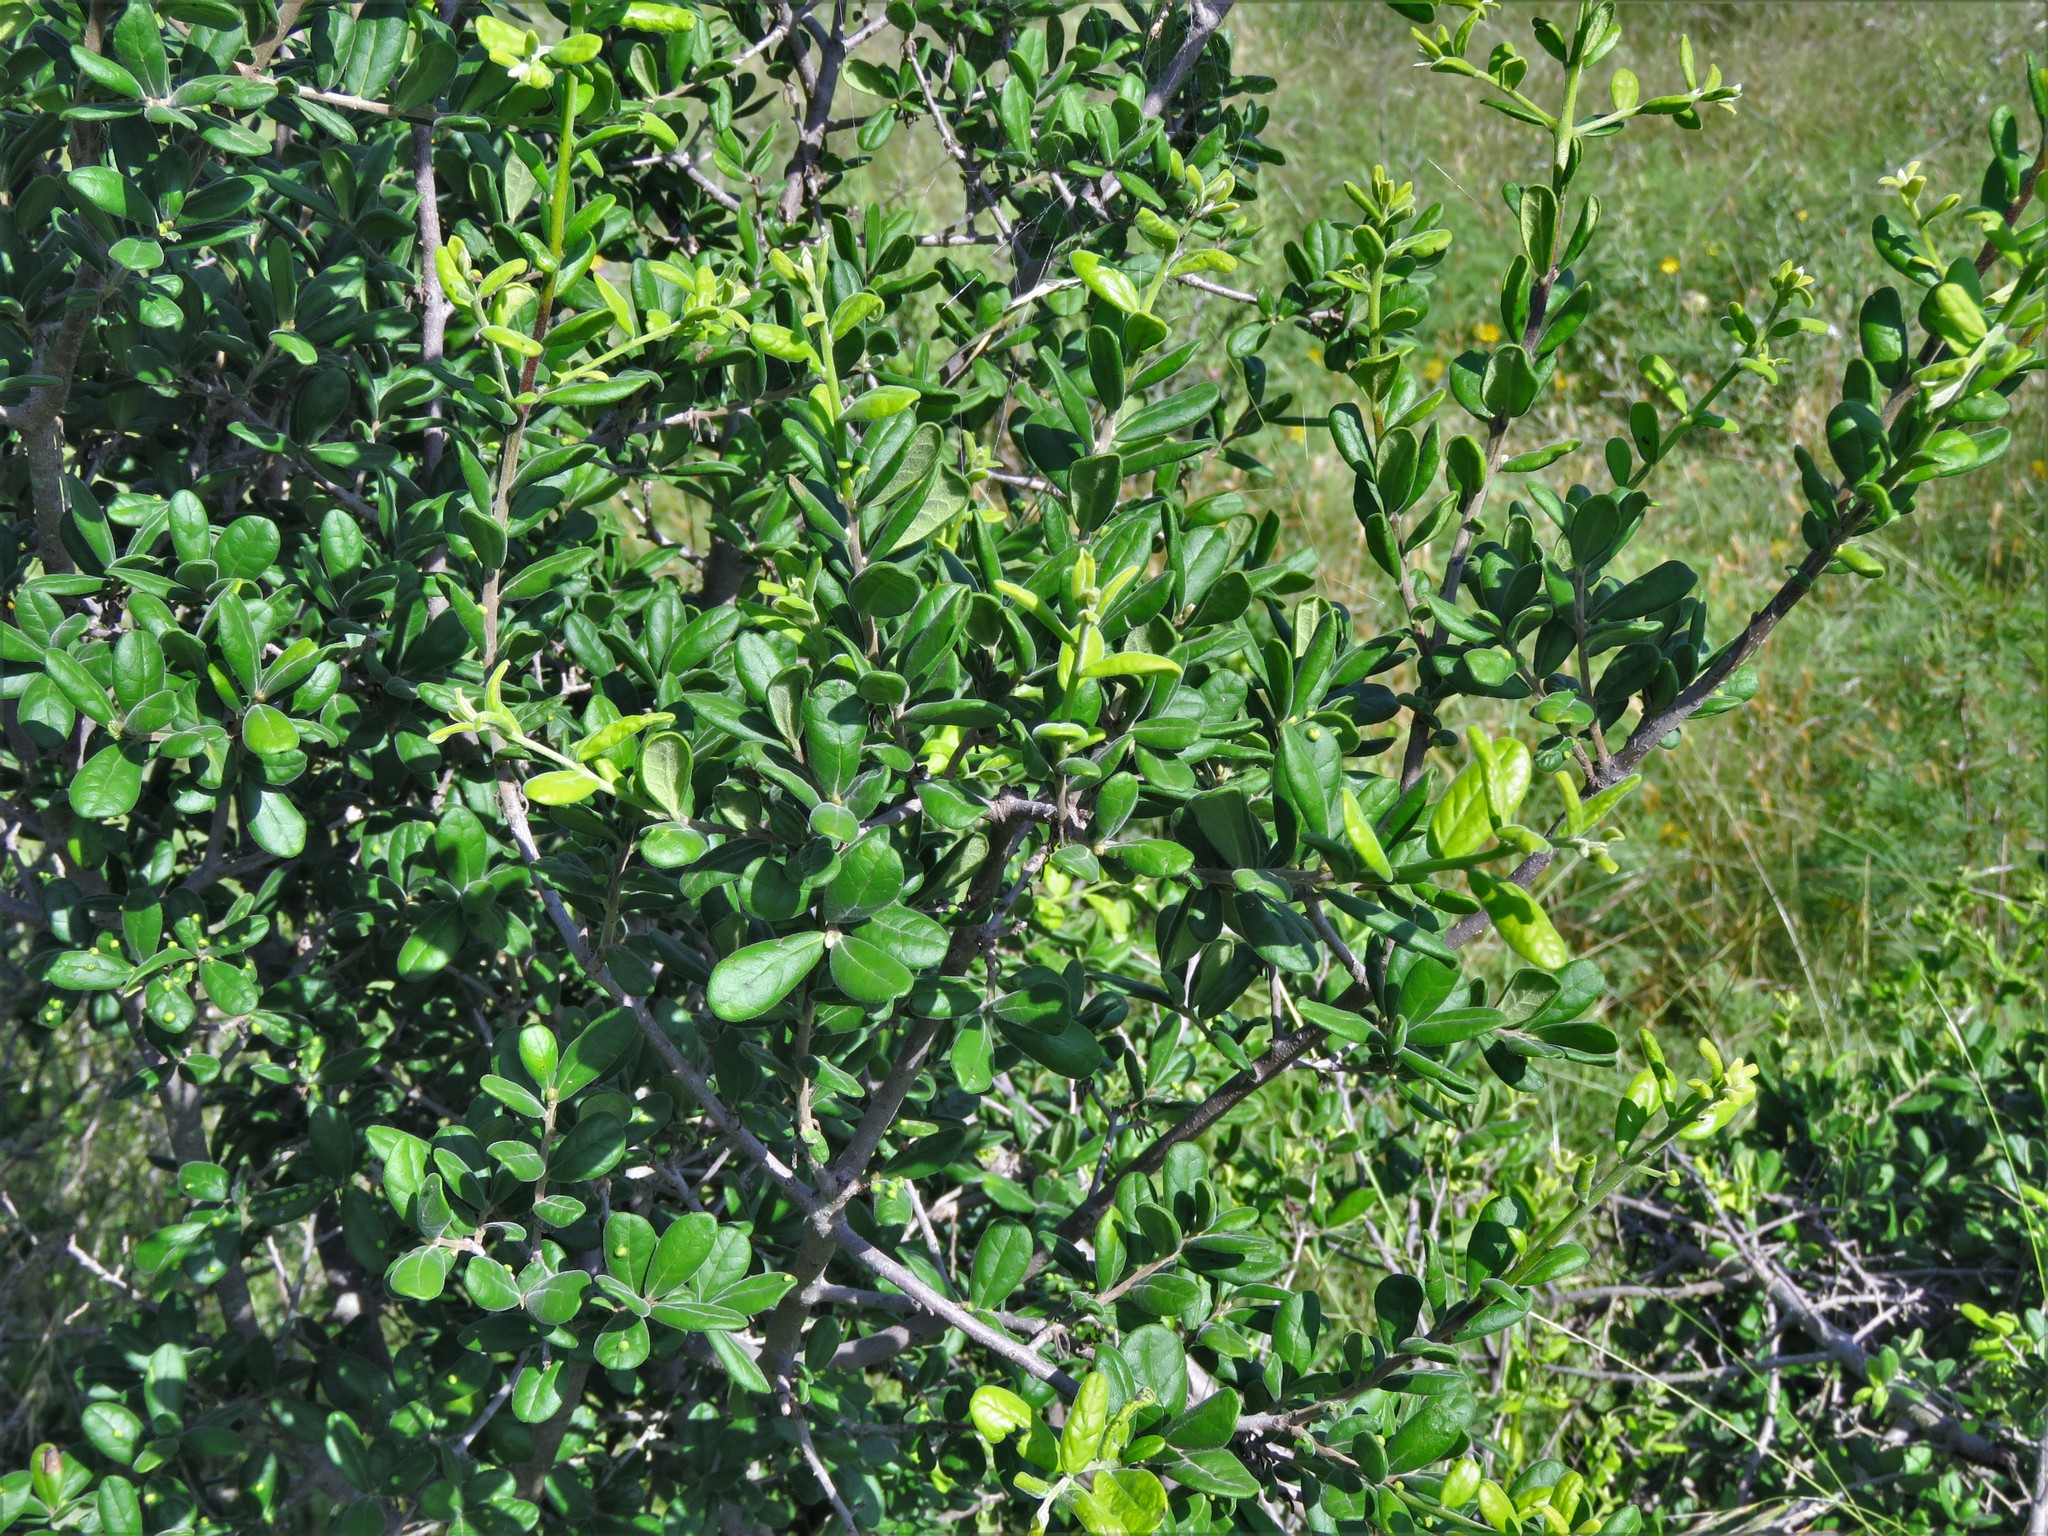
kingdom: Plantae
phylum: Tracheophyta
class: Magnoliopsida
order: Ericales
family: Ebenaceae
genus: Diospyros
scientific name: Diospyros texana
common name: Texas persimmon
